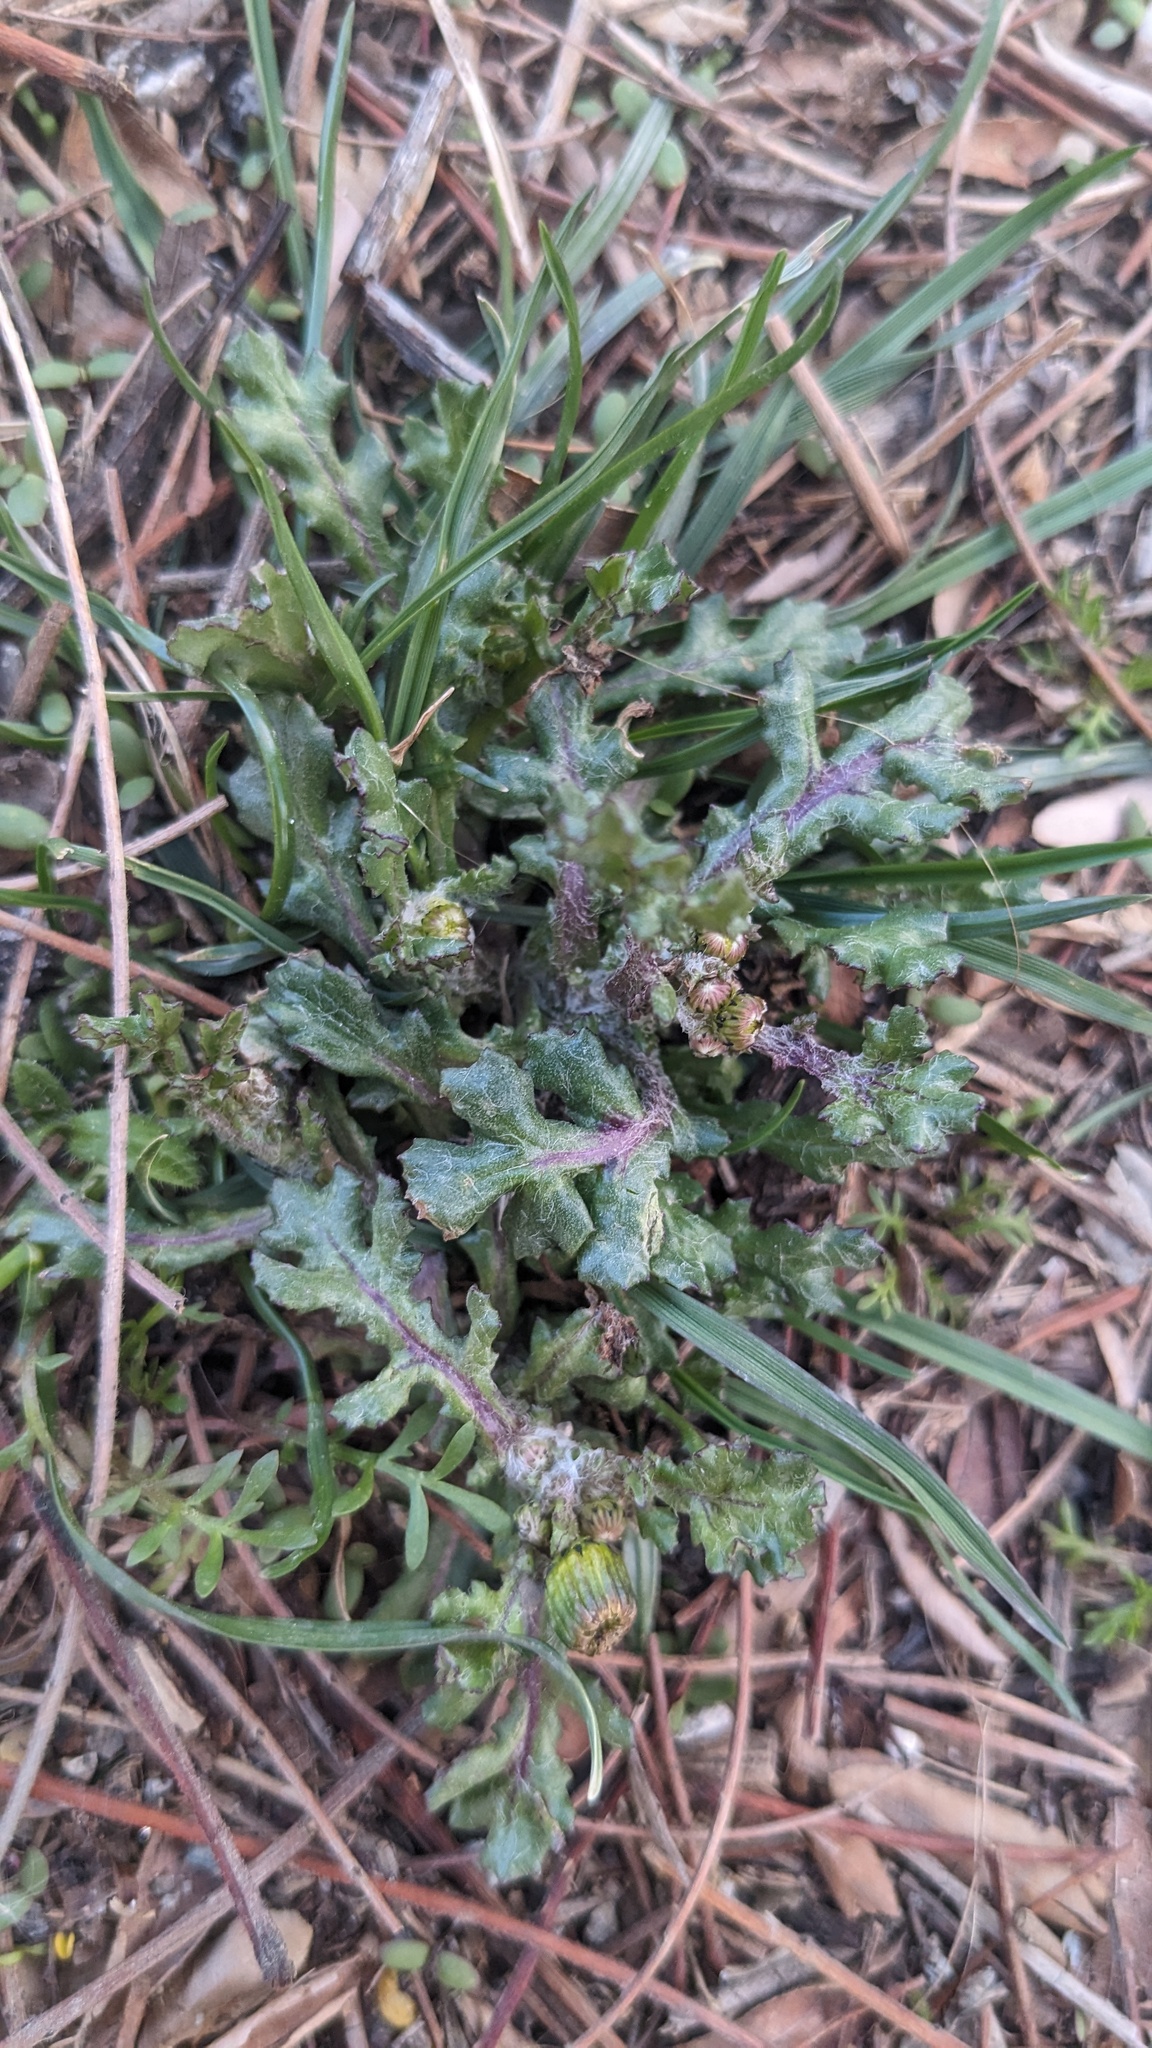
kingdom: Plantae
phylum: Tracheophyta
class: Magnoliopsida
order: Asterales
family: Asteraceae
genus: Senecio
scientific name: Senecio vulgaris
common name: Old-man-in-the-spring
